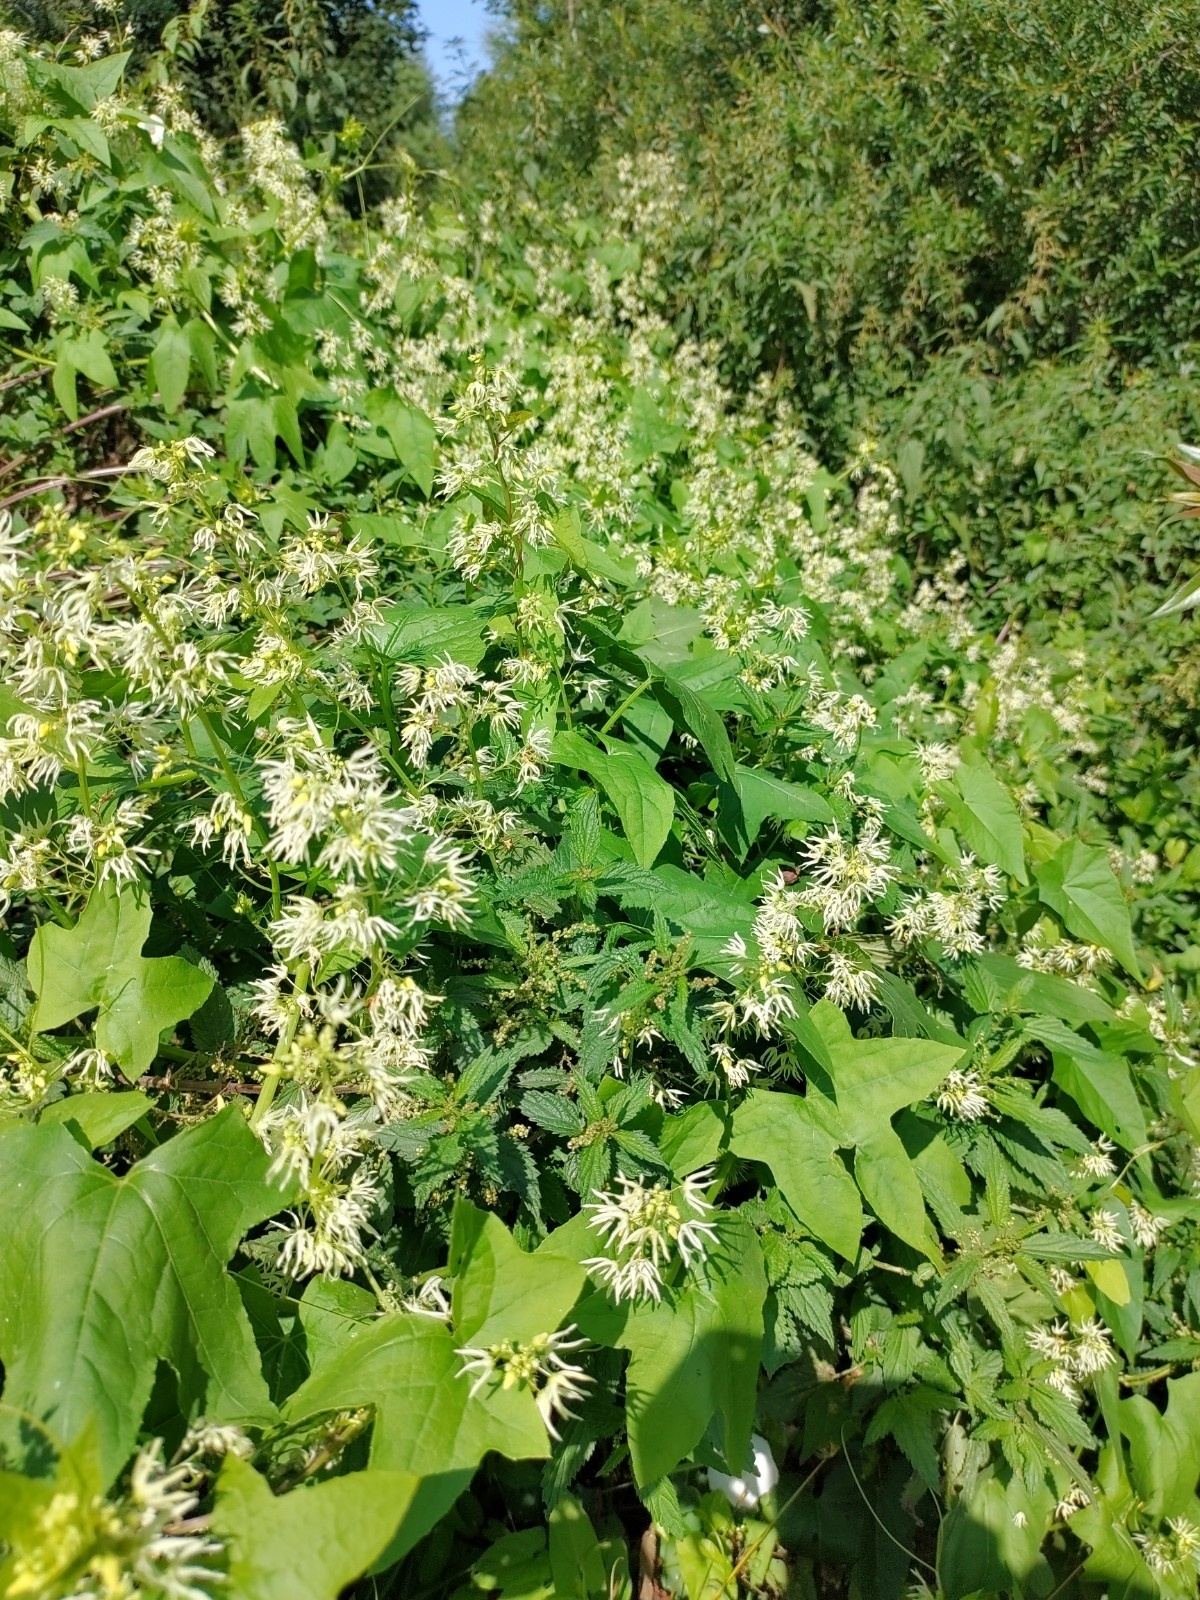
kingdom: Plantae
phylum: Tracheophyta
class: Magnoliopsida
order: Cucurbitales
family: Cucurbitaceae
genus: Echinocystis
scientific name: Echinocystis lobata
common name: Wild cucumber
